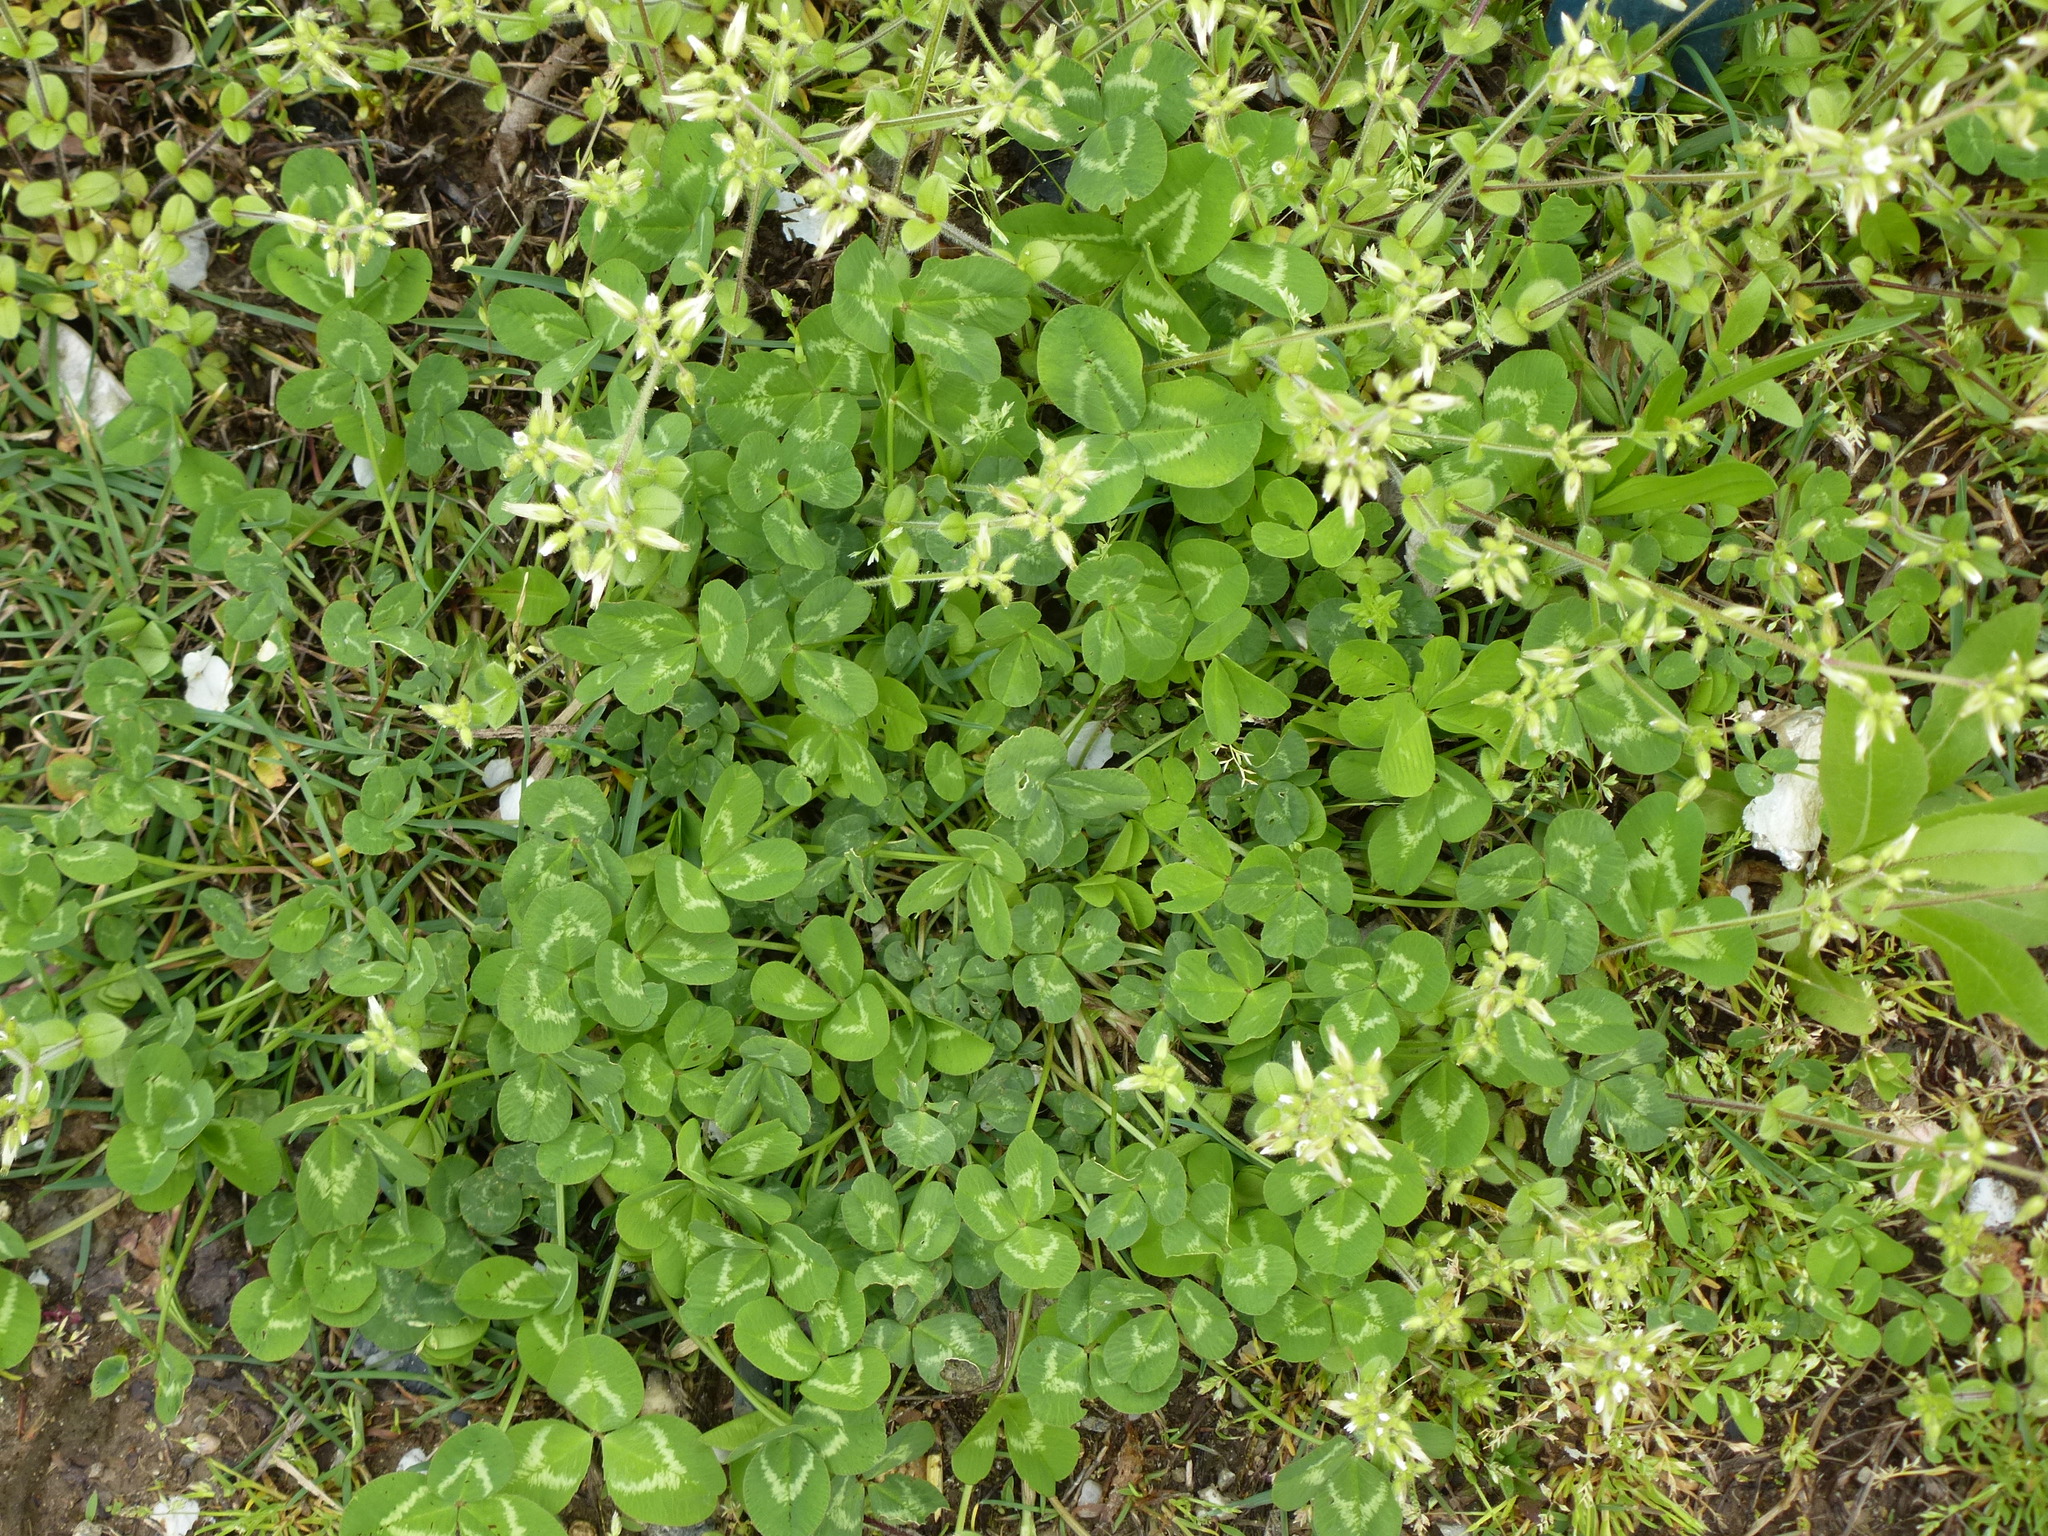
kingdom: Plantae
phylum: Tracheophyta
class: Magnoliopsida
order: Fabales
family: Fabaceae
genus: Trifolium
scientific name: Trifolium repens
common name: White clover
